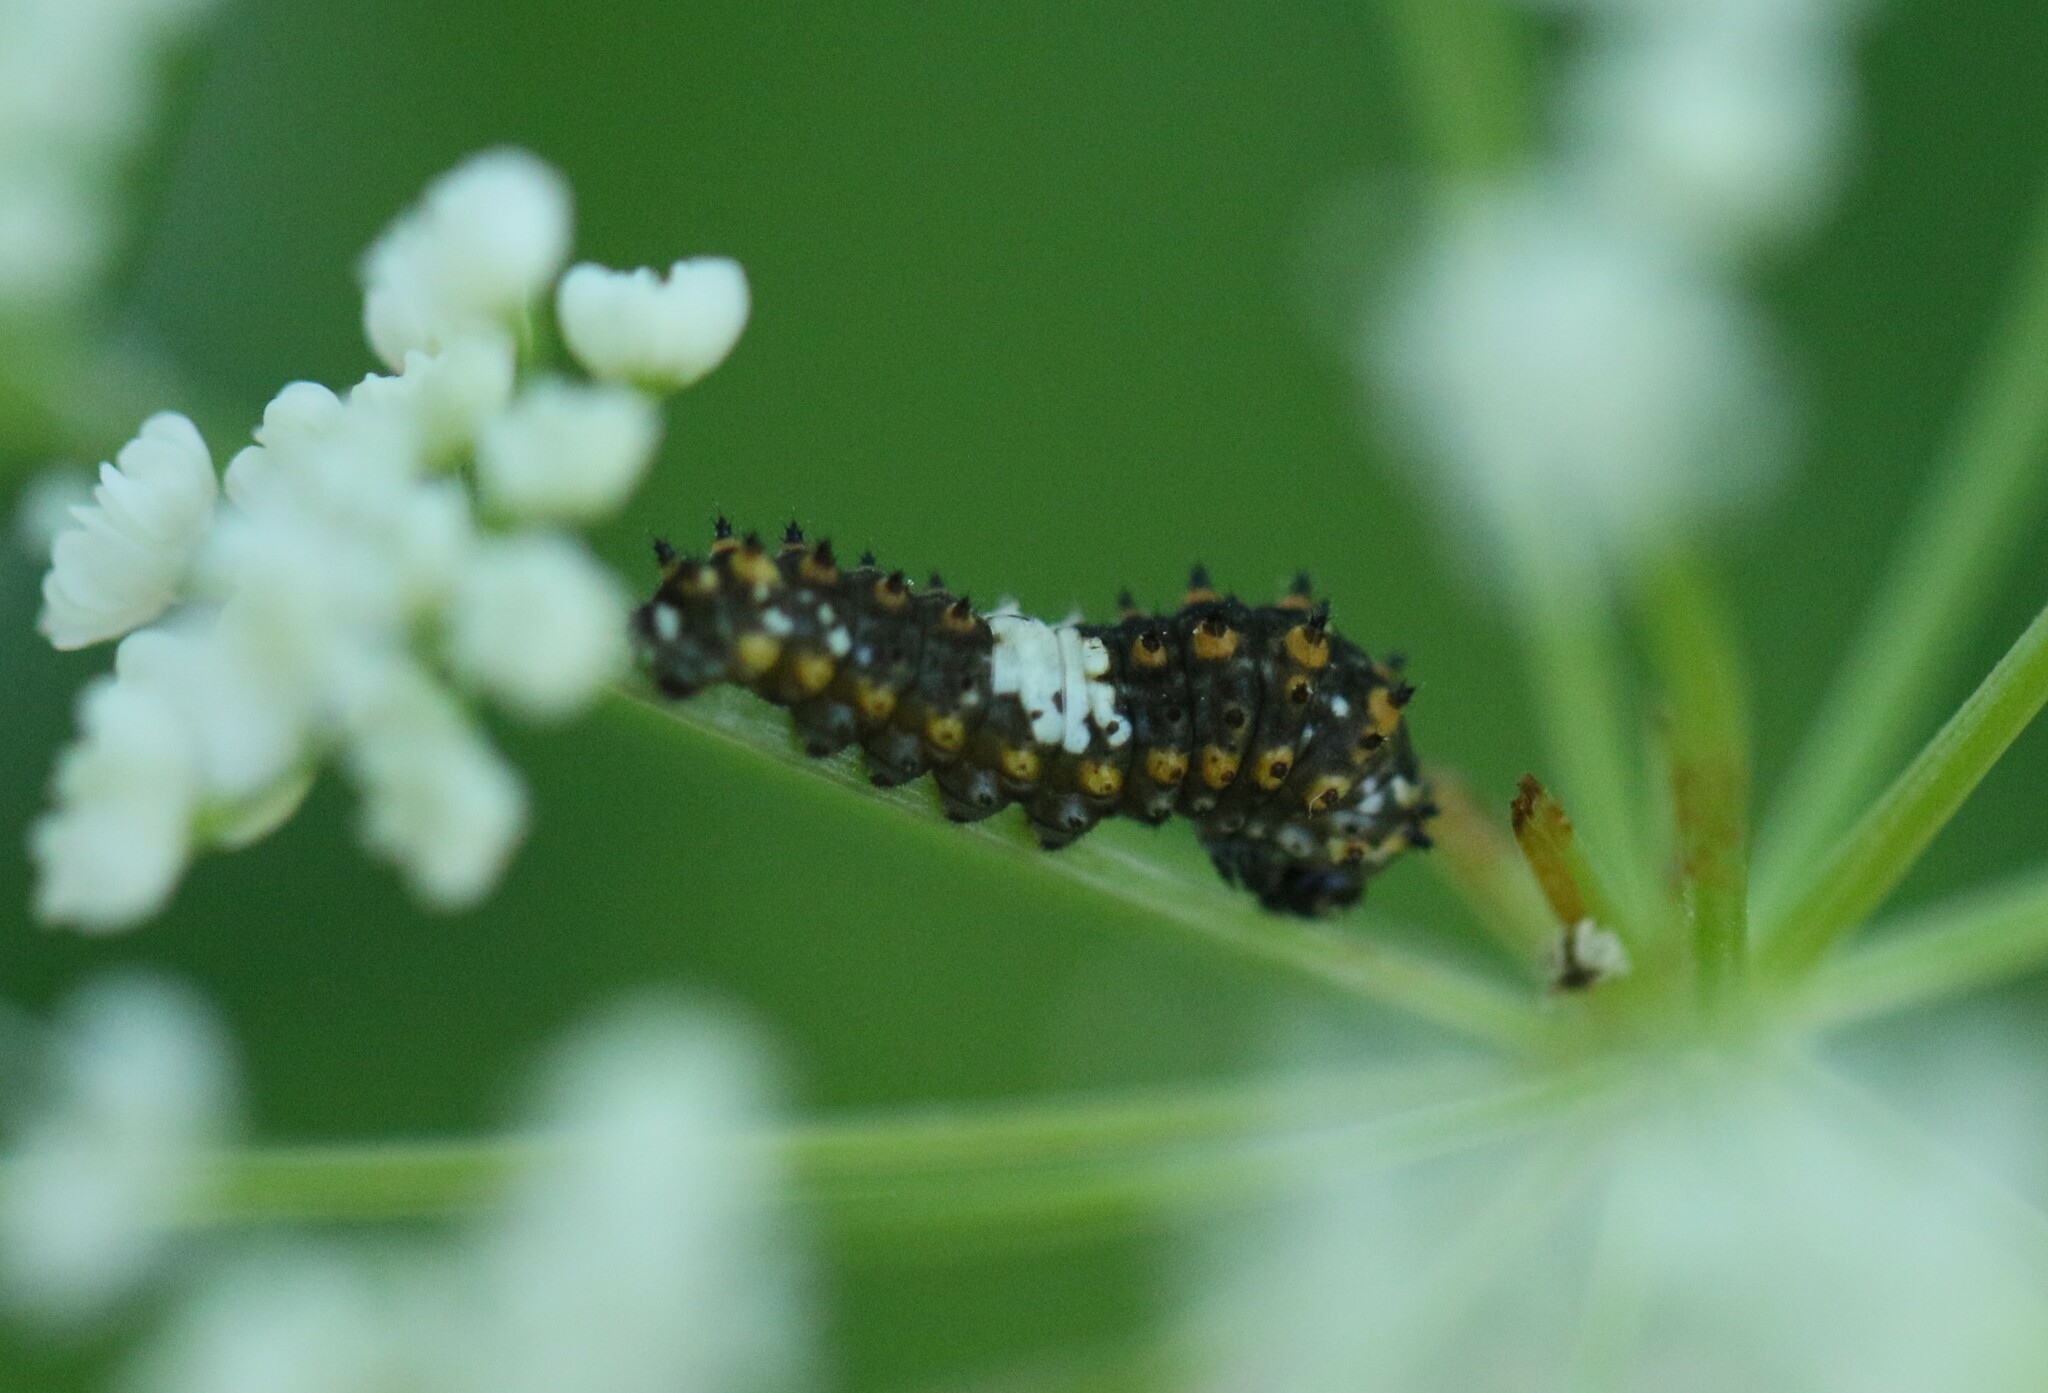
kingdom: Animalia
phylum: Arthropoda
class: Insecta
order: Lepidoptera
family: Papilionidae
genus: Papilio
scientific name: Papilio polyxenes
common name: Black swallowtail
